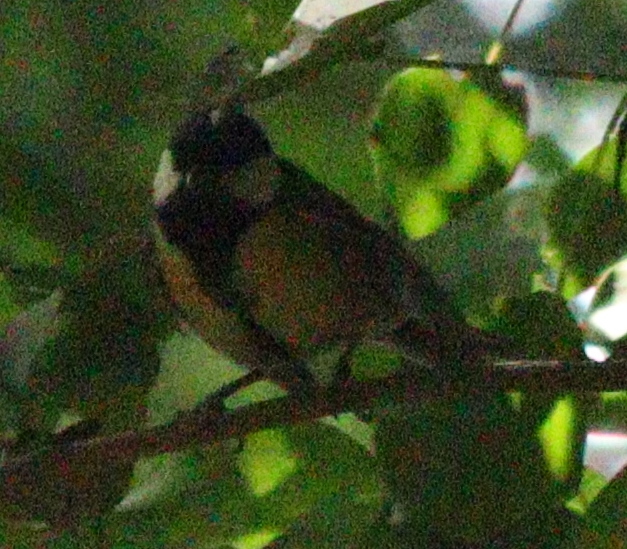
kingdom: Animalia
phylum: Chordata
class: Aves
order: Passeriformes
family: Paridae
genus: Parus
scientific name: Parus major
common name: Great tit
